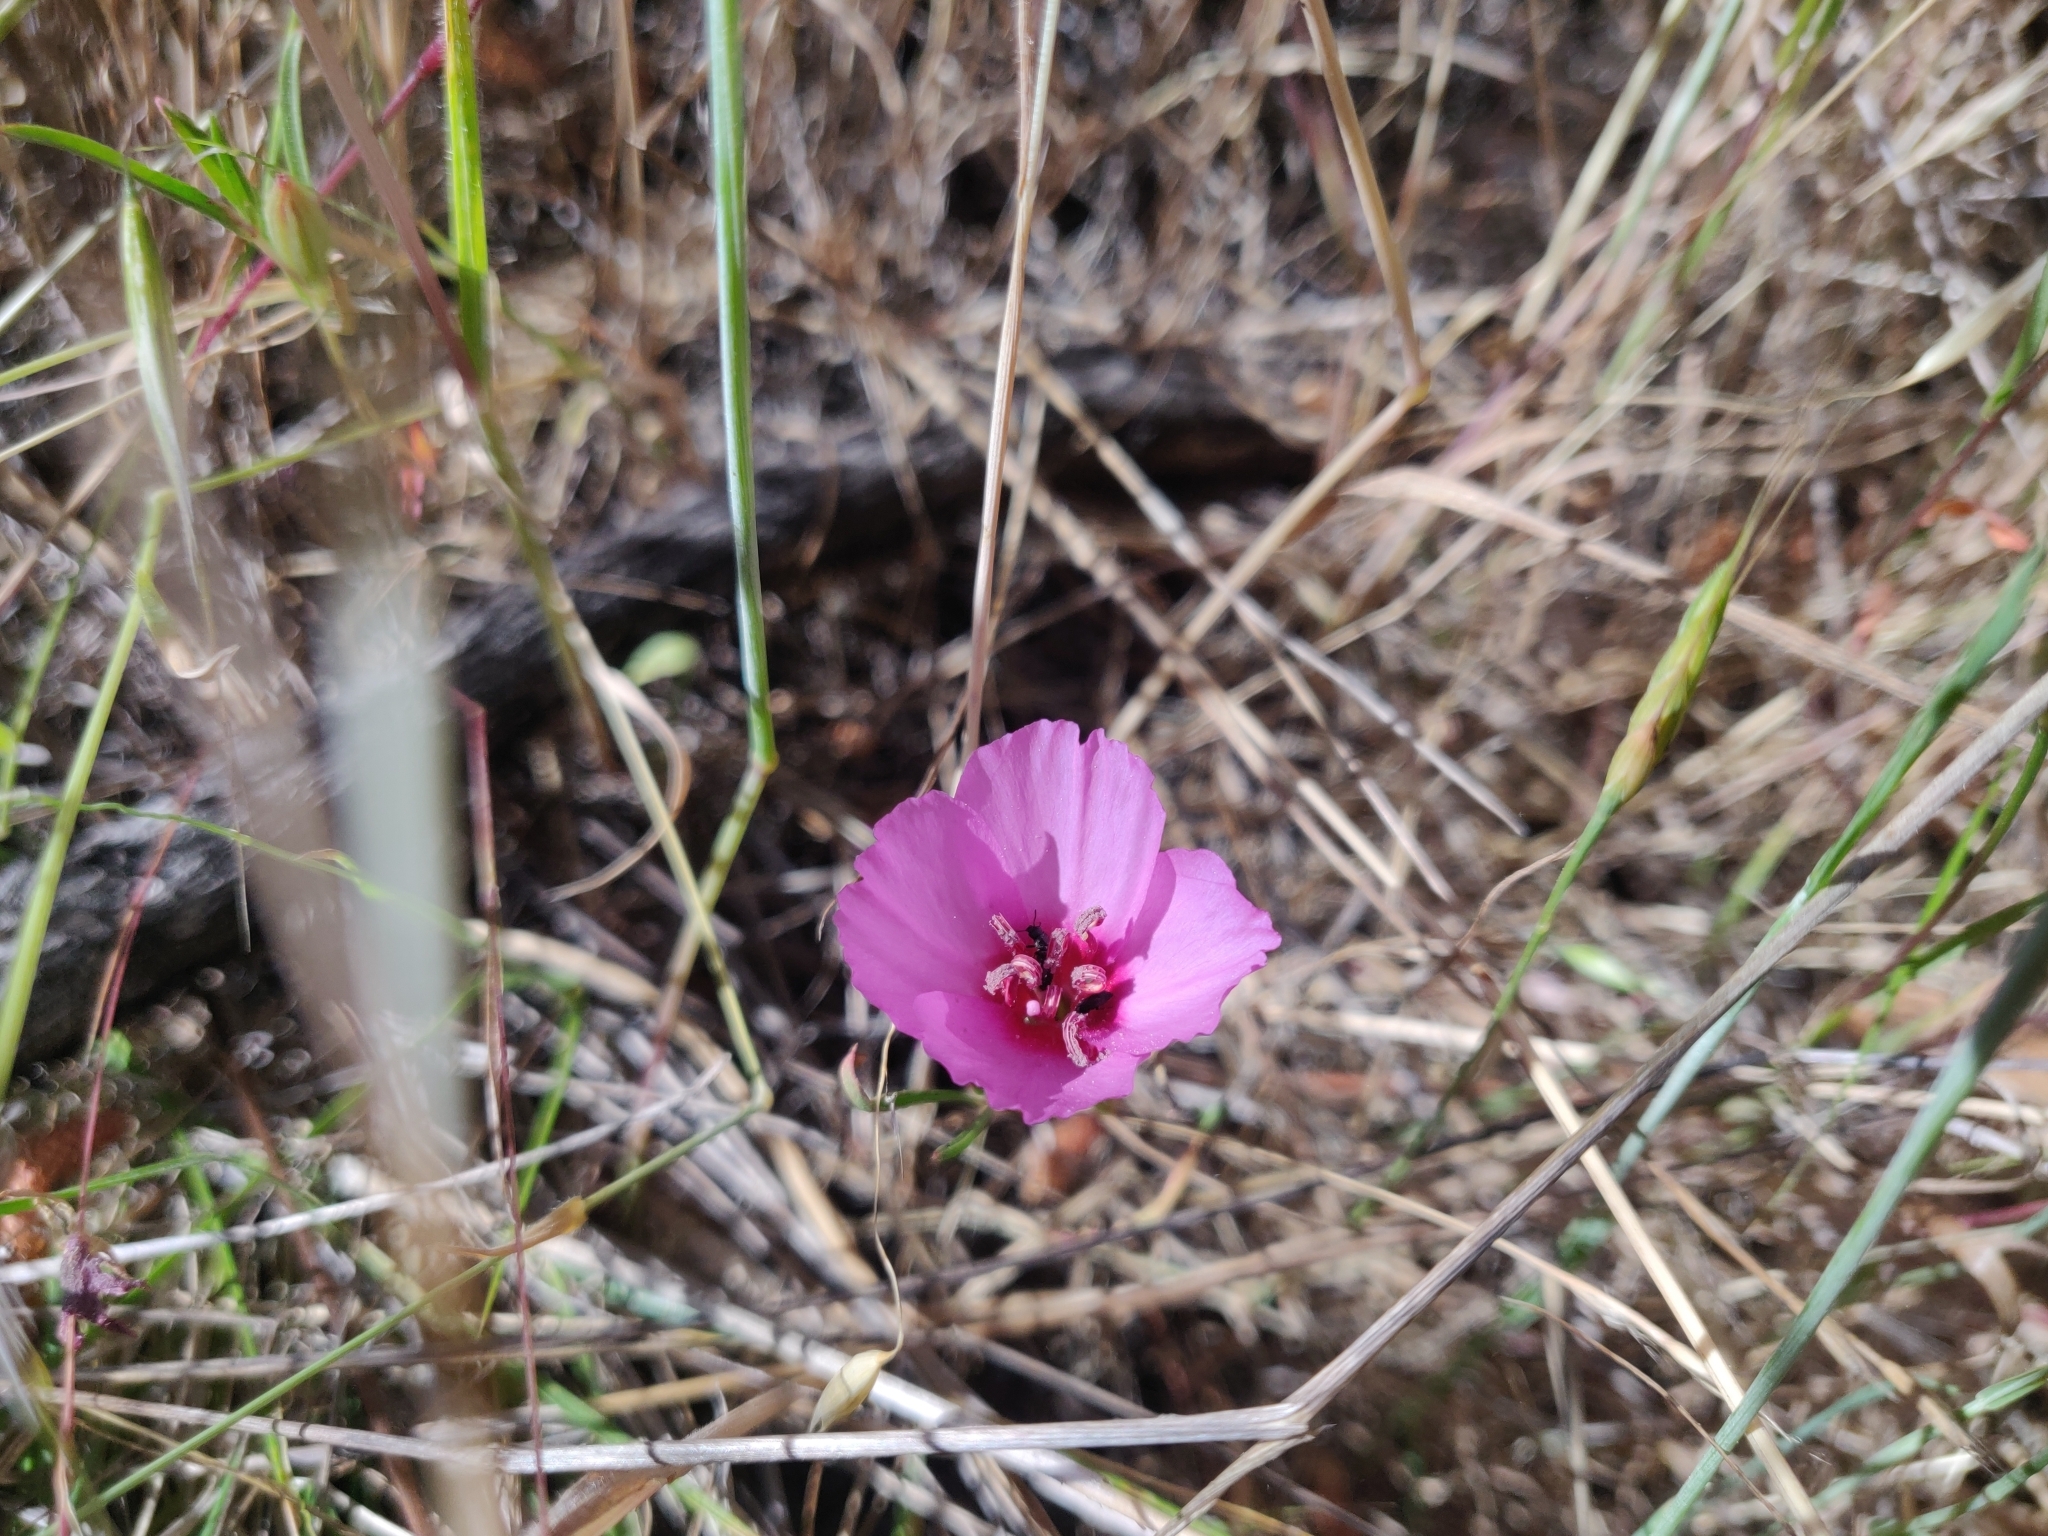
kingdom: Plantae
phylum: Tracheophyta
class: Magnoliopsida
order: Myrtales
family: Onagraceae
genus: Clarkia
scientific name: Clarkia rubicunda
